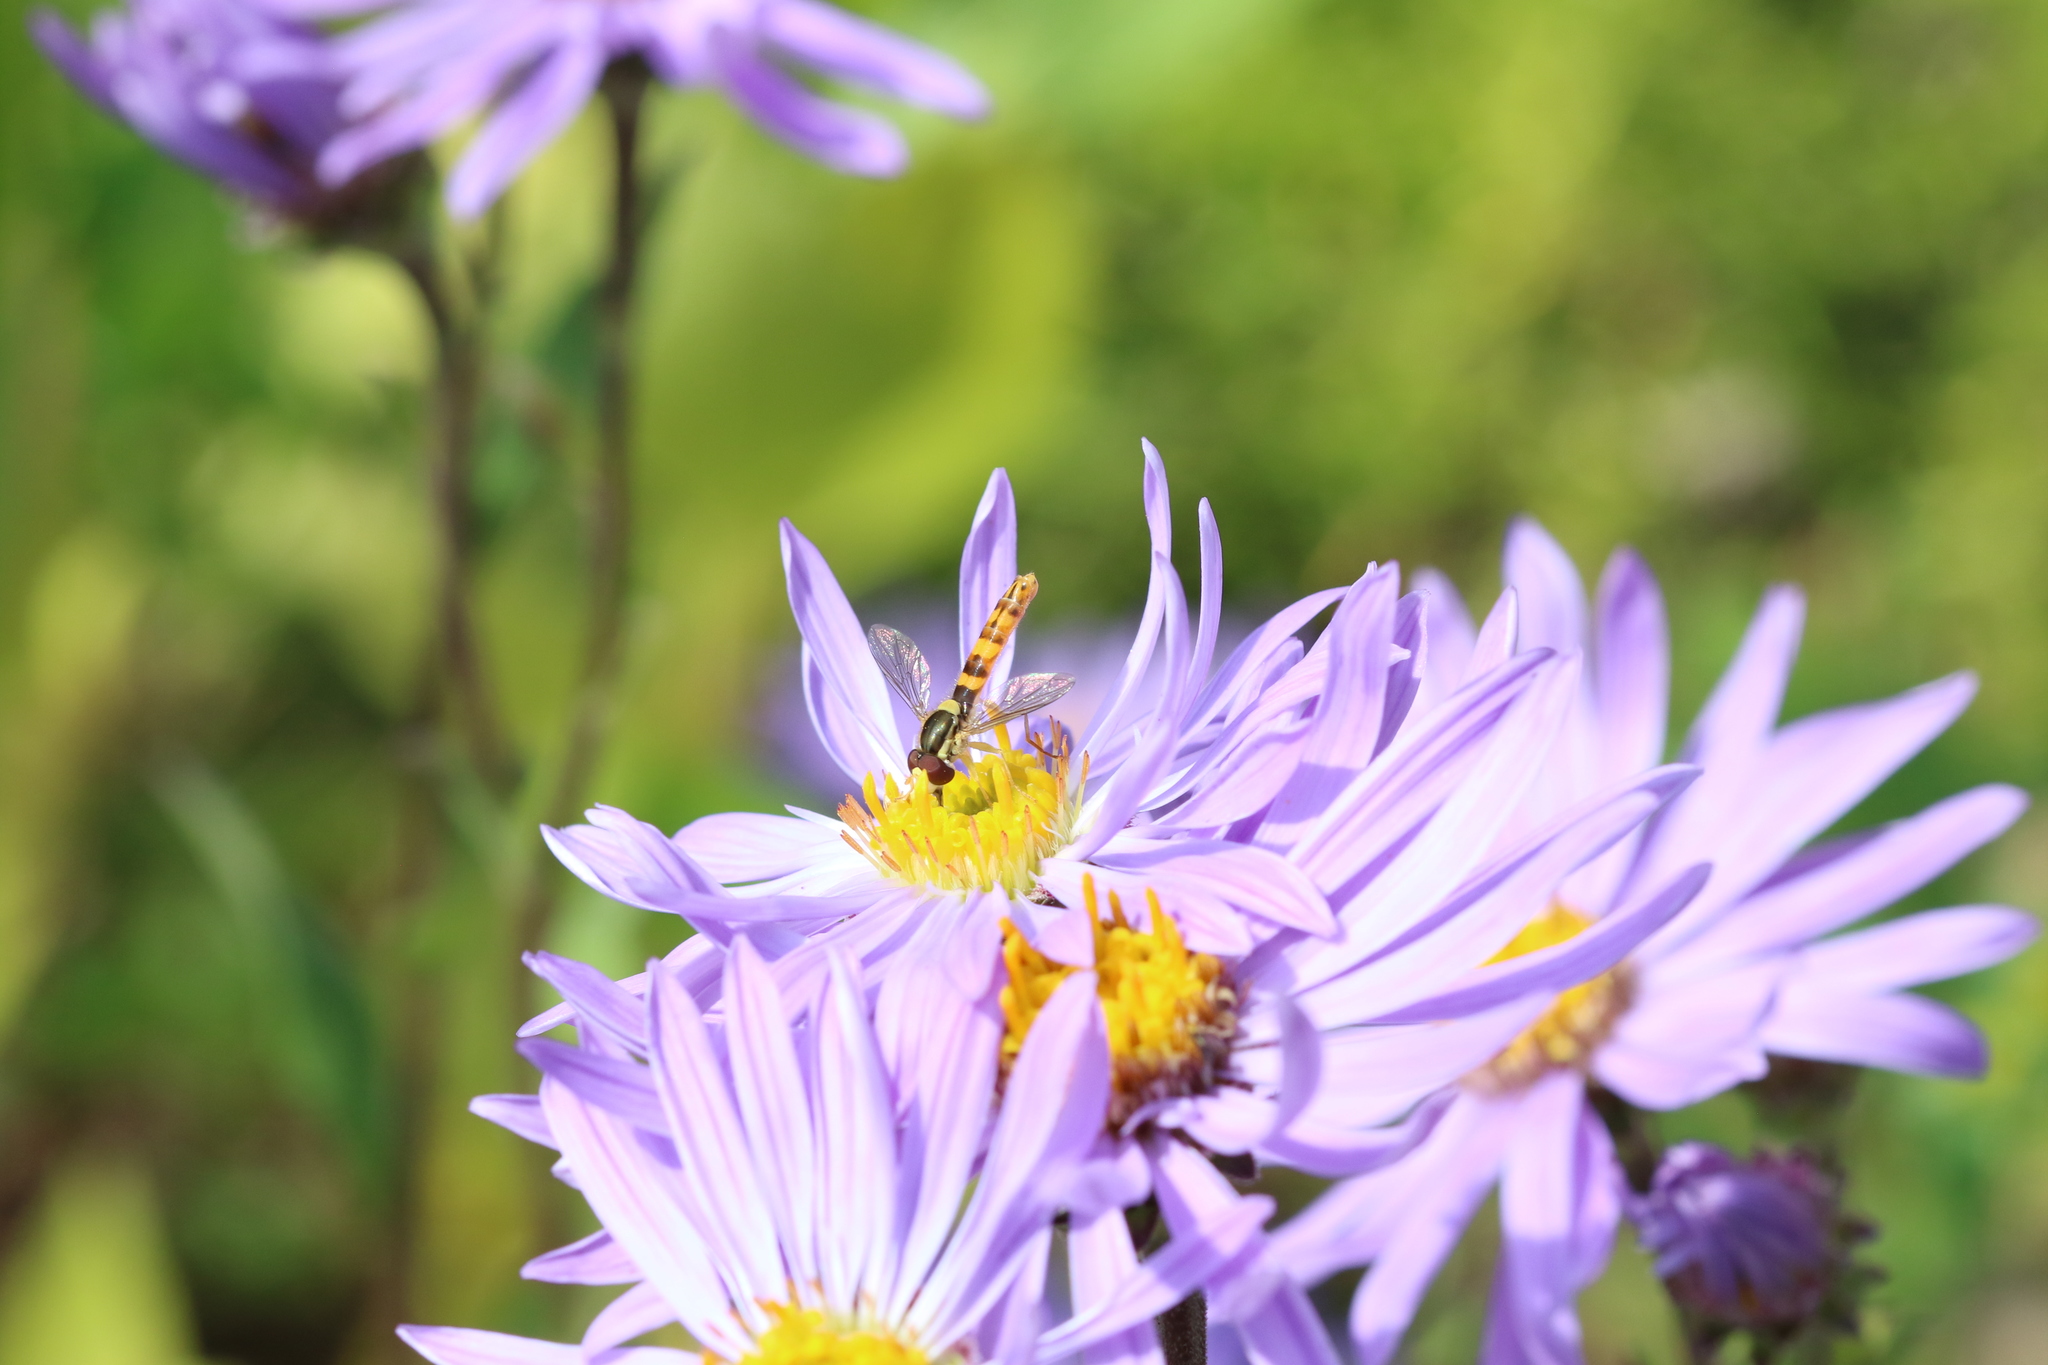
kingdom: Animalia
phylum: Arthropoda
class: Insecta
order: Diptera
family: Syrphidae
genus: Sphaerophoria
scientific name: Sphaerophoria scripta
